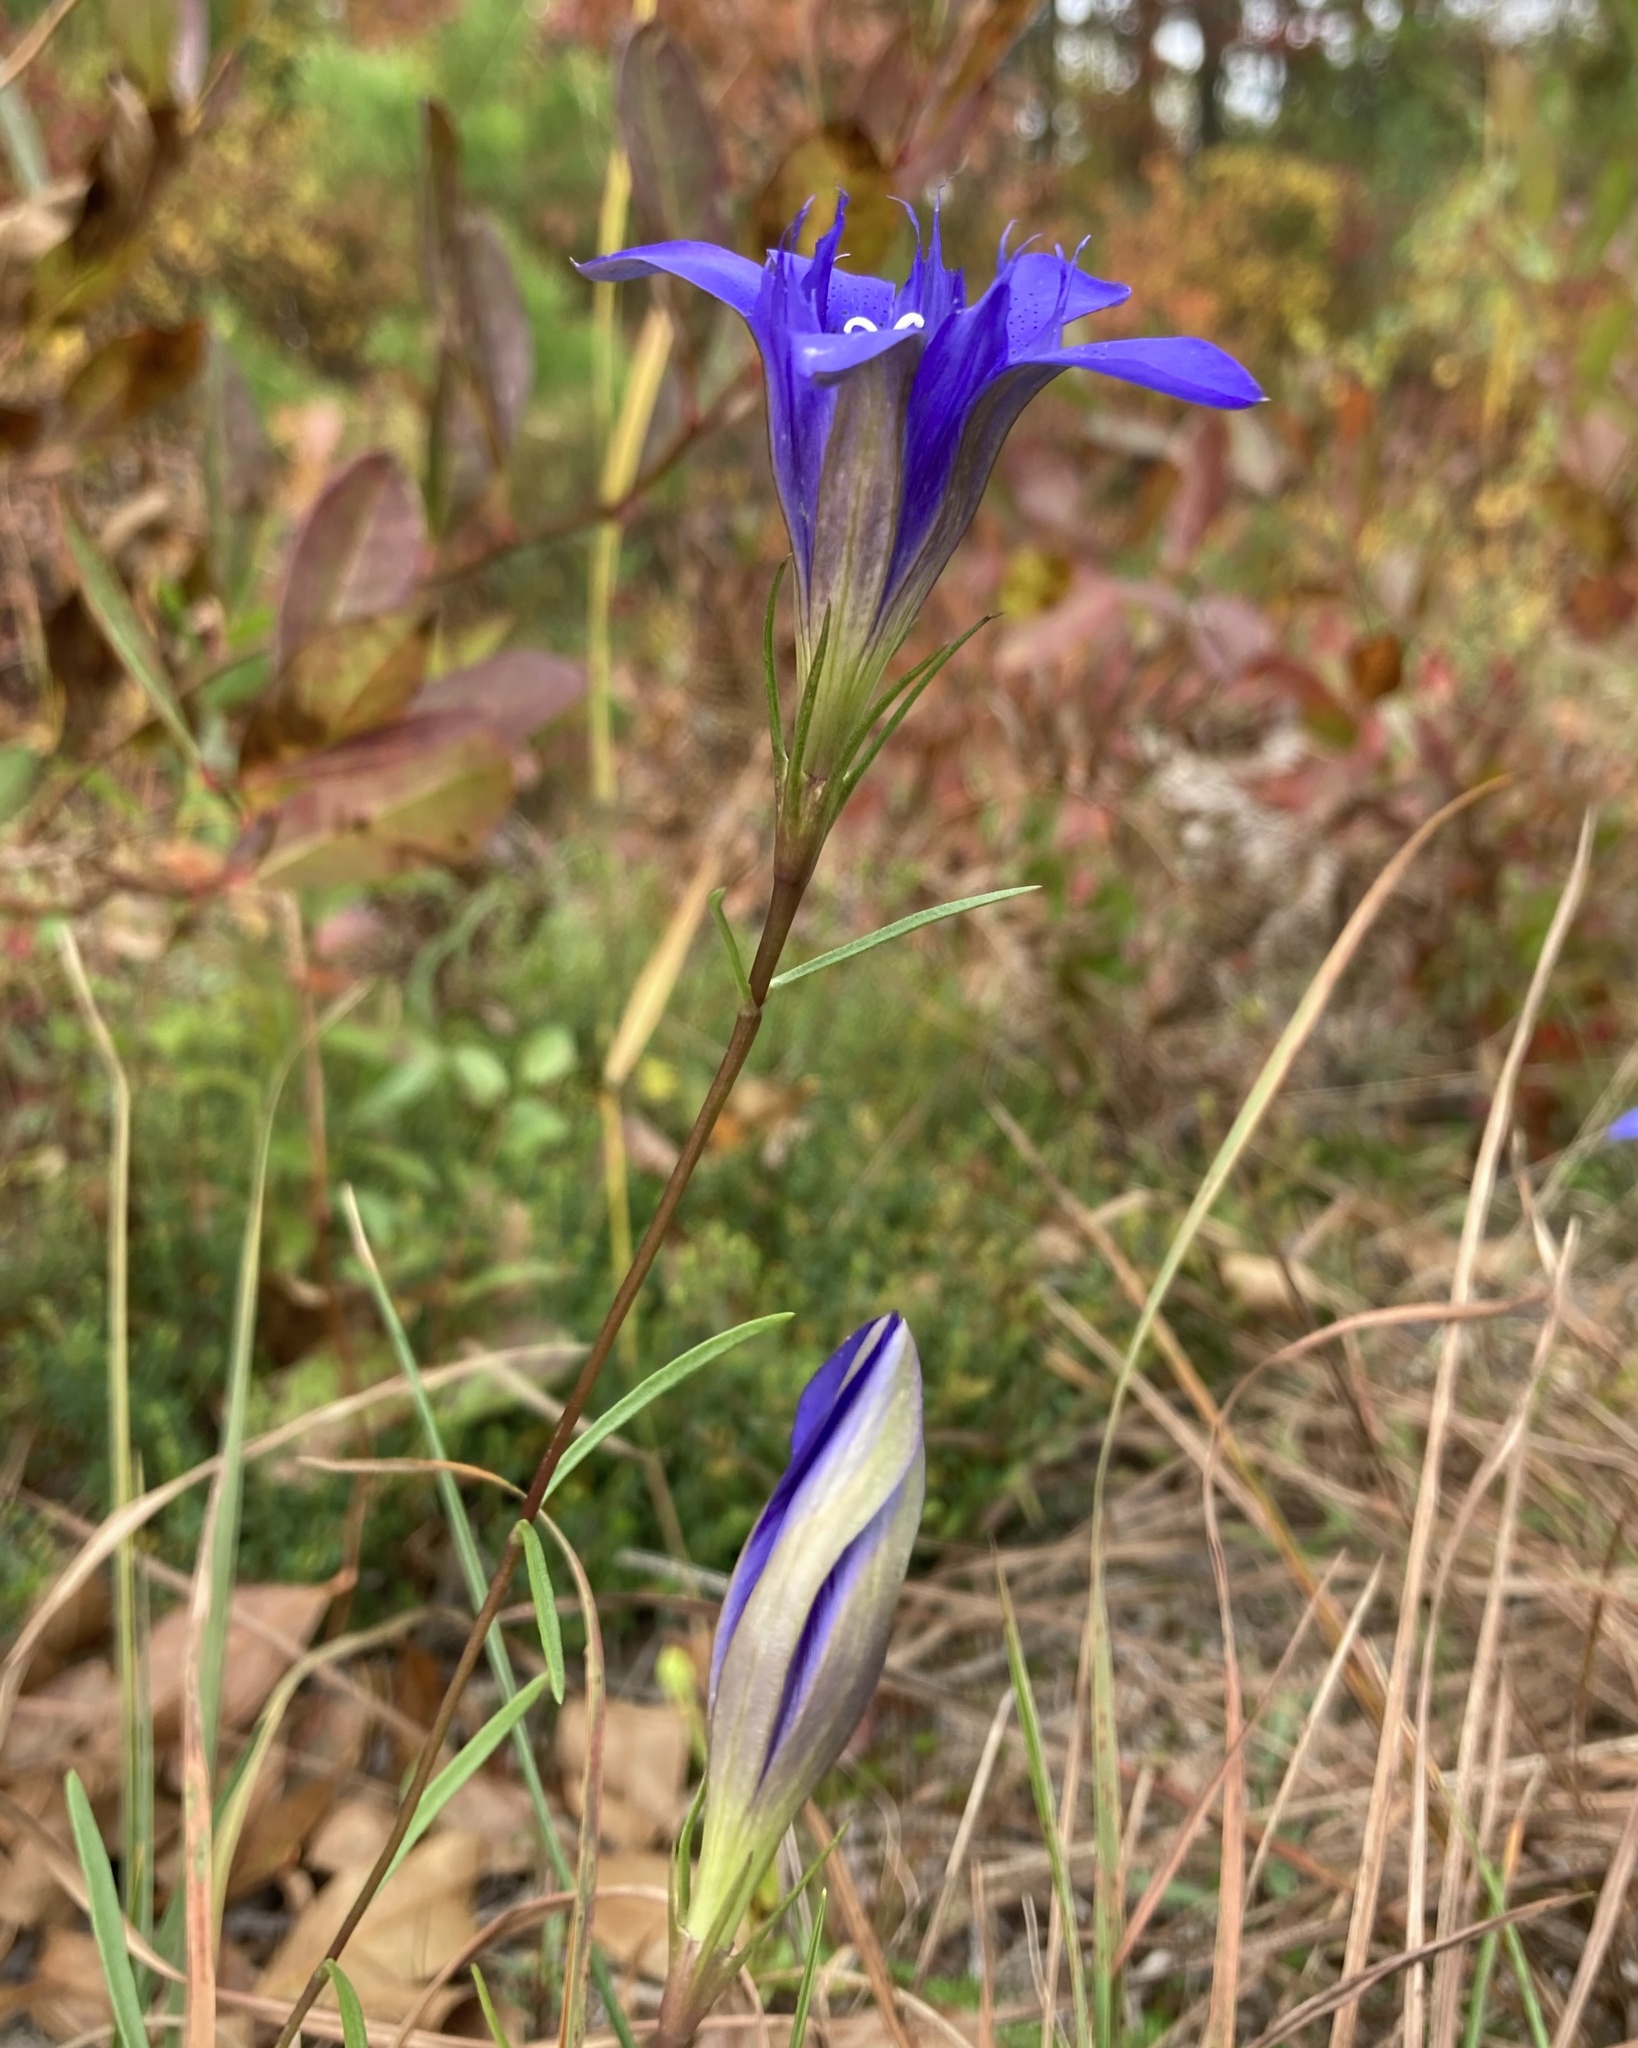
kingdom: Plantae
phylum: Tracheophyta
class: Magnoliopsida
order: Gentianales
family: Gentianaceae
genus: Gentiana
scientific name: Gentiana autumnalis
